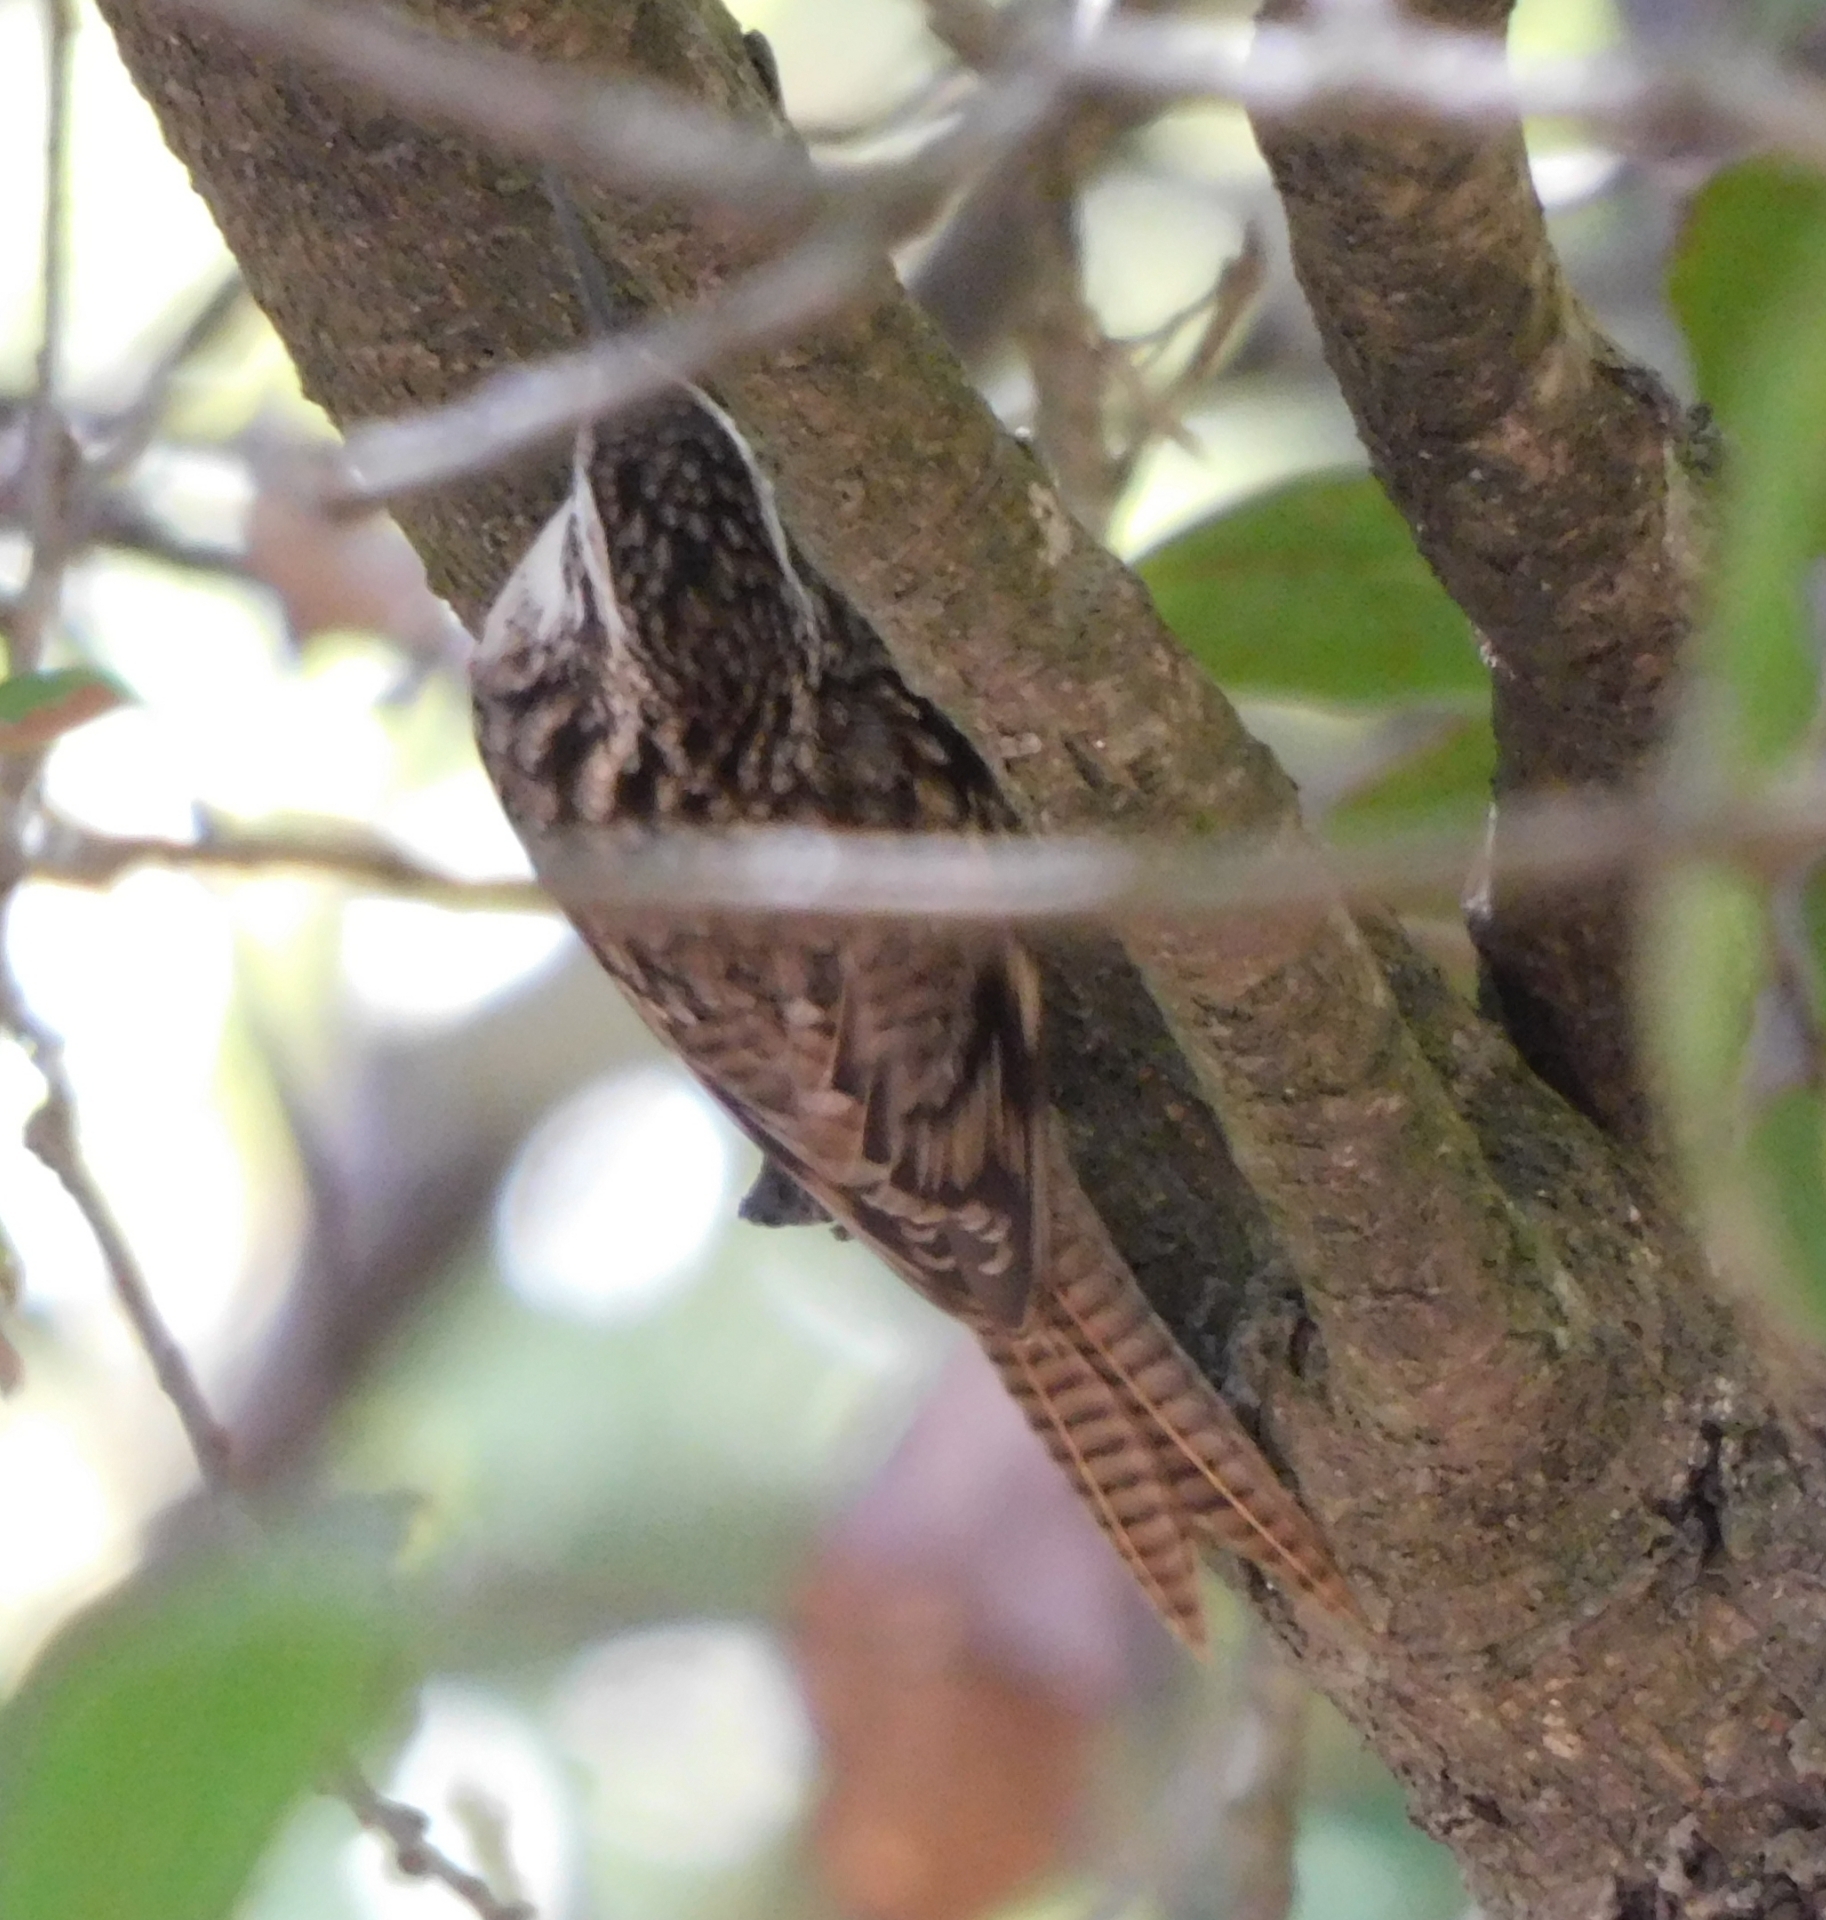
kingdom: Animalia
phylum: Chordata
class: Aves
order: Passeriformes
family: Certhiidae
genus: Certhia
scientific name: Certhia himalayana
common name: Bar-tailed treecreeper
